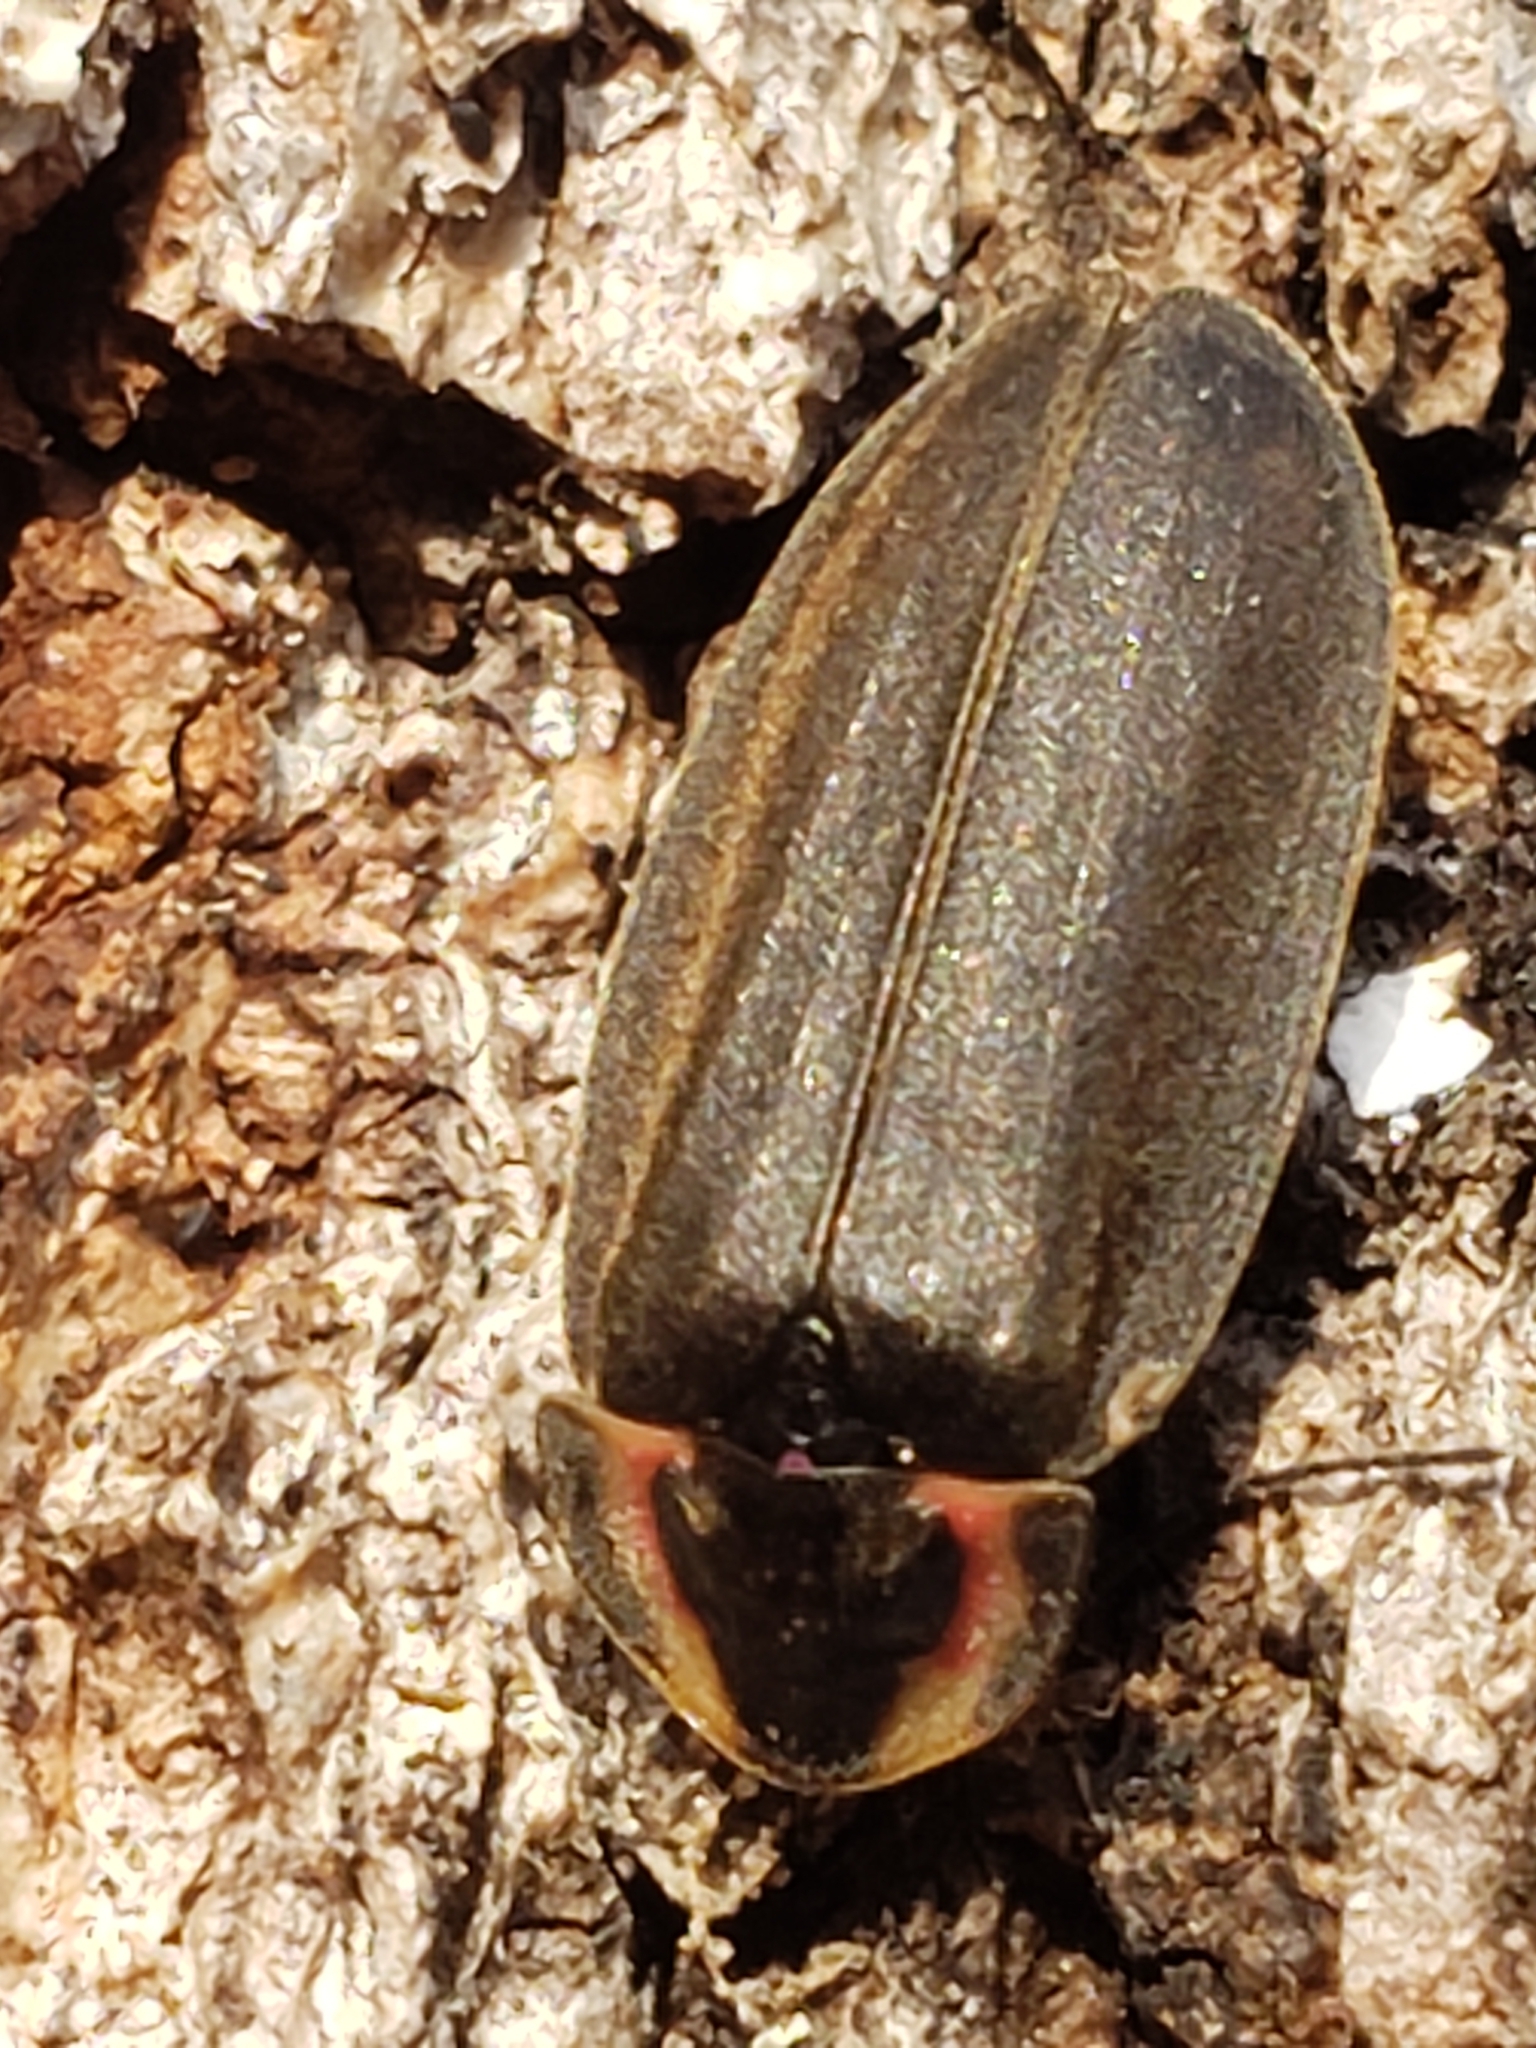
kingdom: Animalia
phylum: Arthropoda
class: Insecta
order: Coleoptera
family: Lampyridae
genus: Photinus
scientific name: Photinus corrusca
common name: Winter firefly
